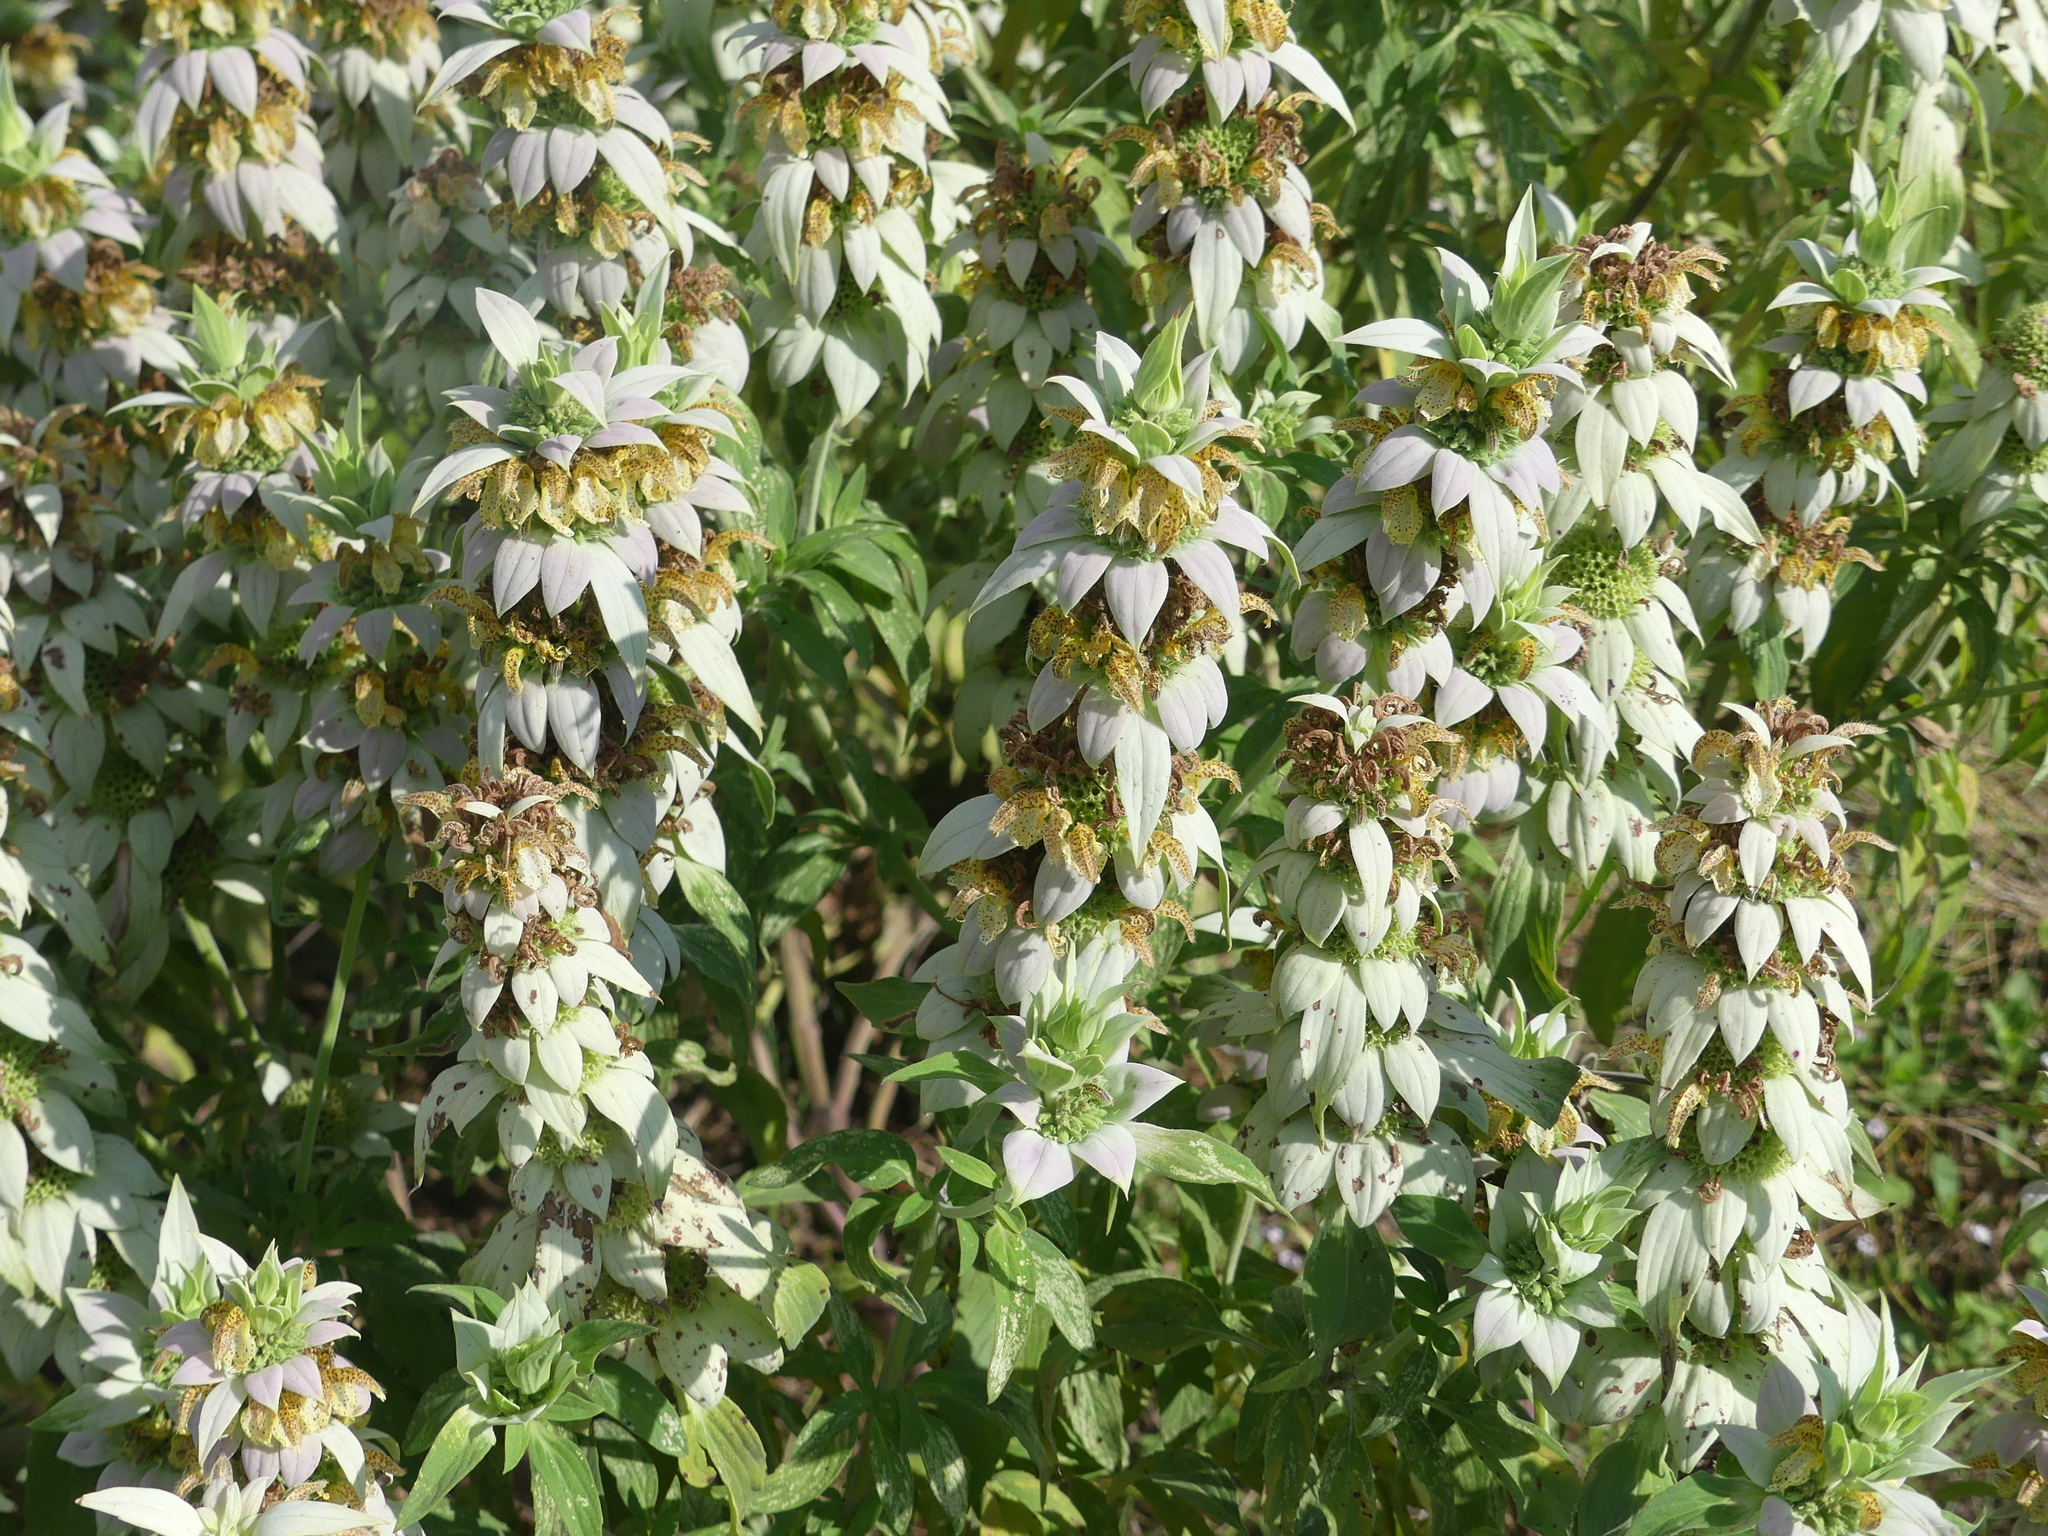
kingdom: Plantae
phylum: Tracheophyta
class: Magnoliopsida
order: Lamiales
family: Lamiaceae
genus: Monarda
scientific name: Monarda punctata
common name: Dotted monarda
